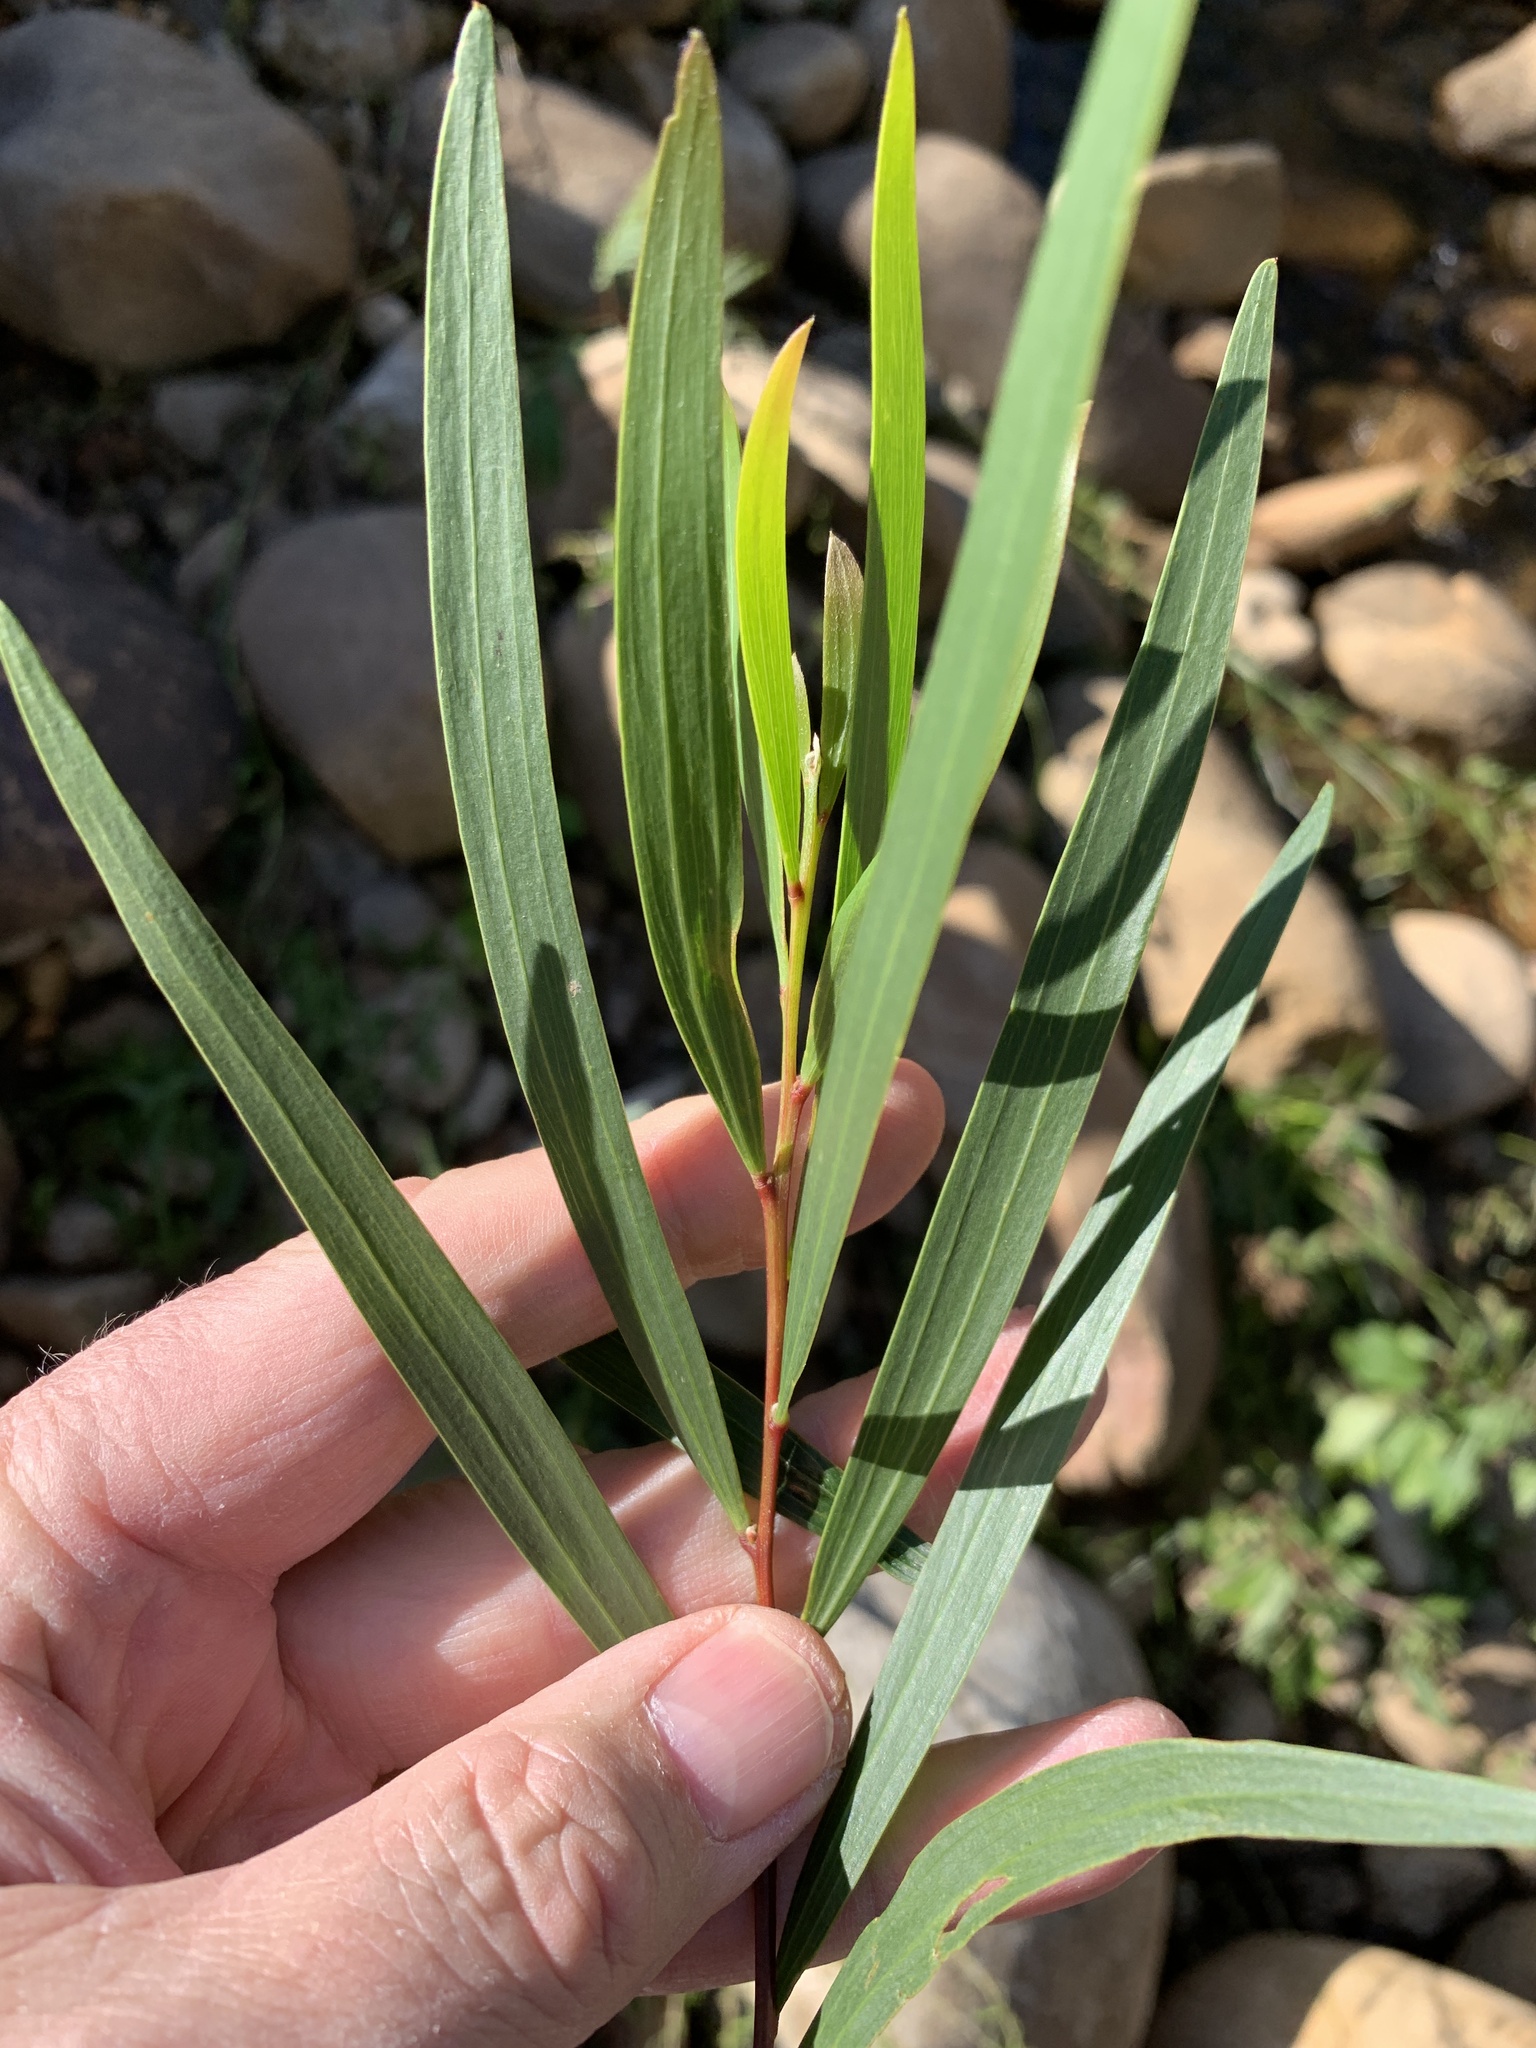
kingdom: Plantae
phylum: Tracheophyta
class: Magnoliopsida
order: Fabales
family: Fabaceae
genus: Acacia
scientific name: Acacia longifolia
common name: Sydney golden wattle
